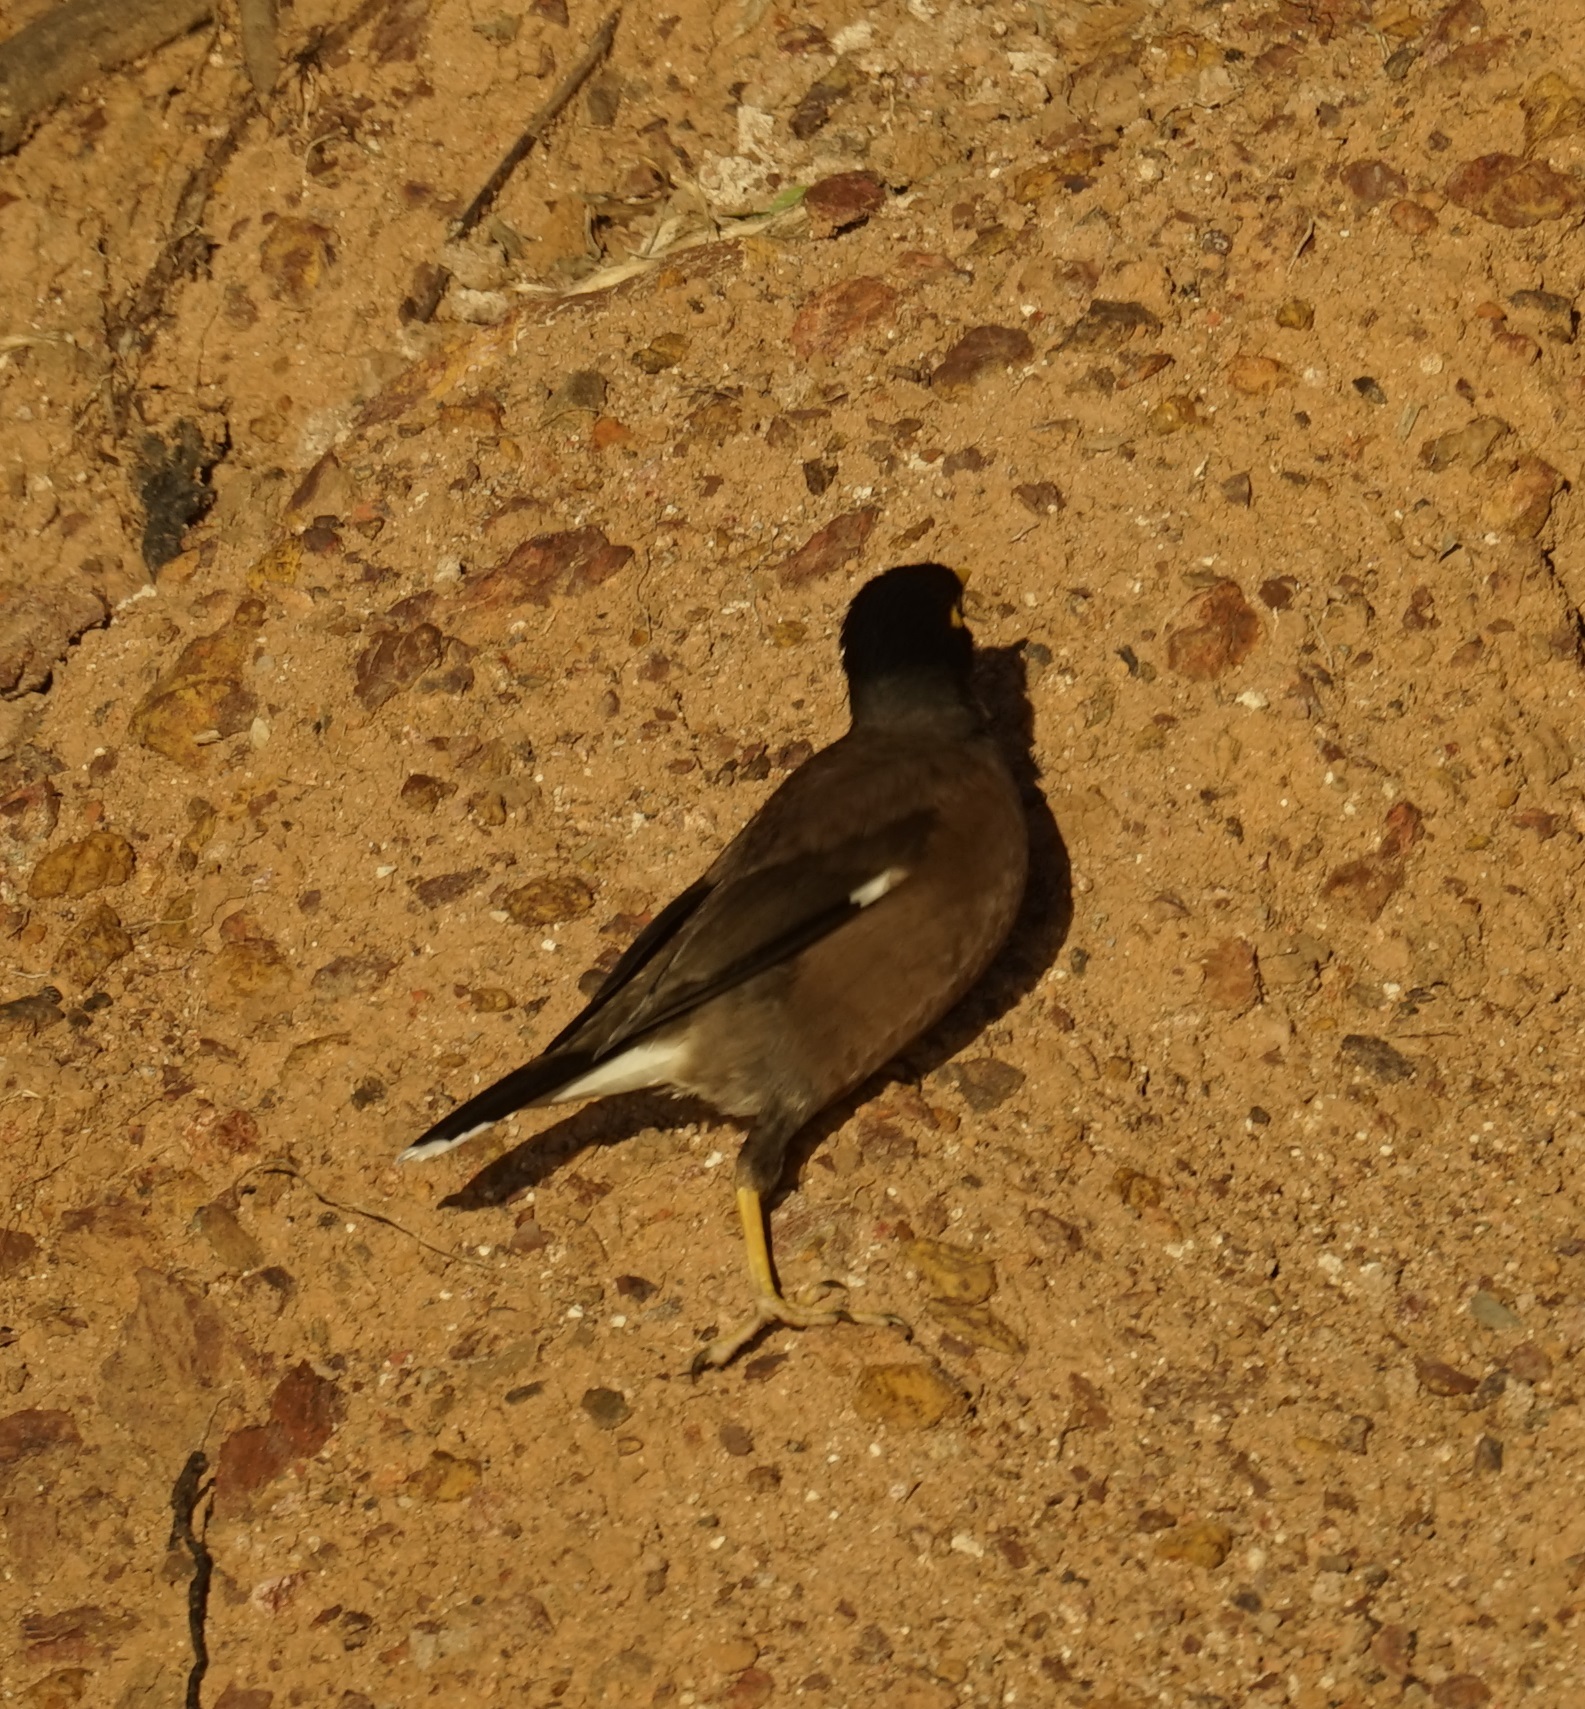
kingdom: Animalia
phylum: Chordata
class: Aves
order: Passeriformes
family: Sturnidae
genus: Acridotheres
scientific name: Acridotheres tristis
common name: Common myna
